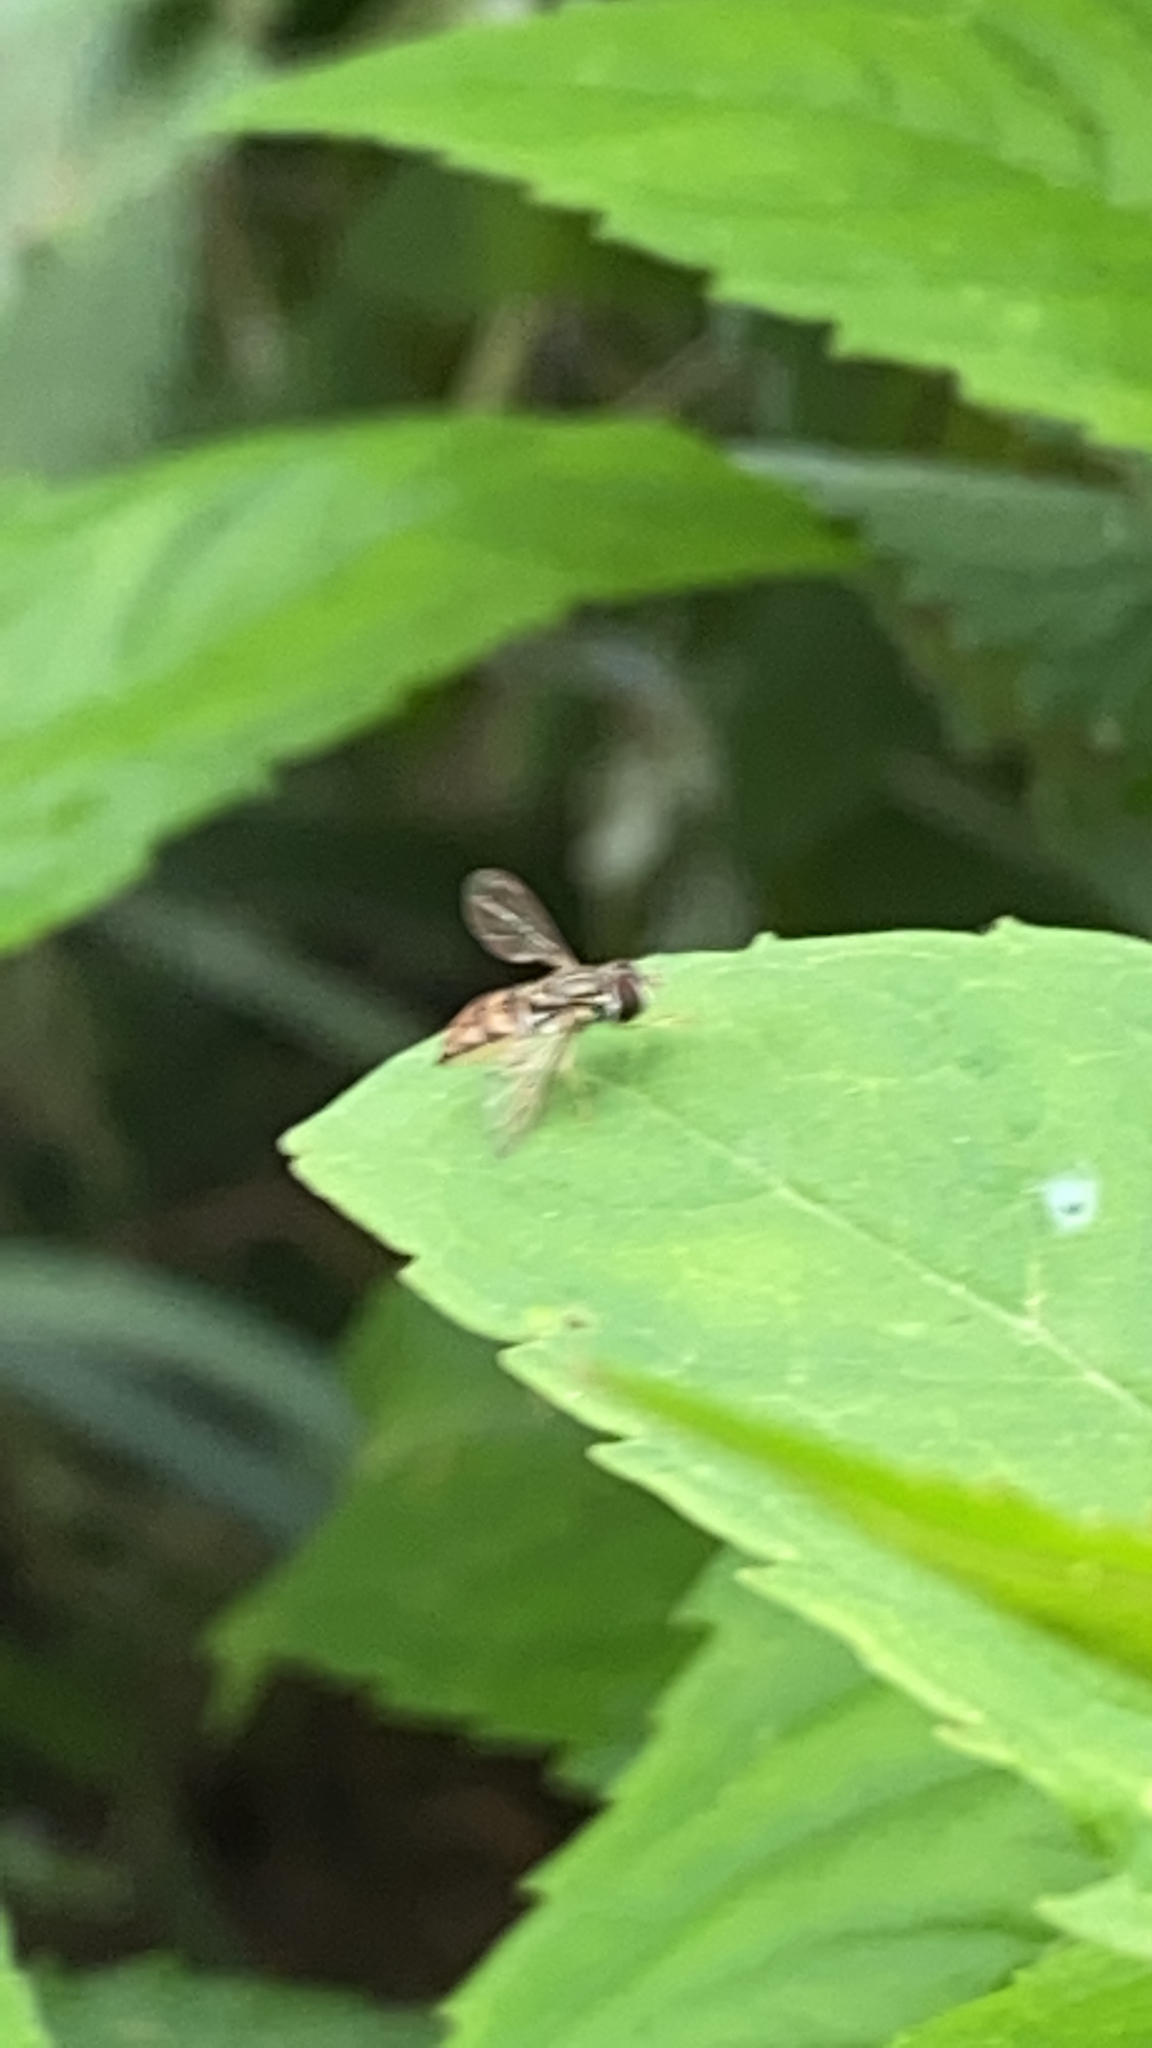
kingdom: Animalia
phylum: Arthropoda
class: Insecta
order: Diptera
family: Syrphidae
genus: Toxomerus
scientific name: Toxomerus marginatus
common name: Syrphid fly
